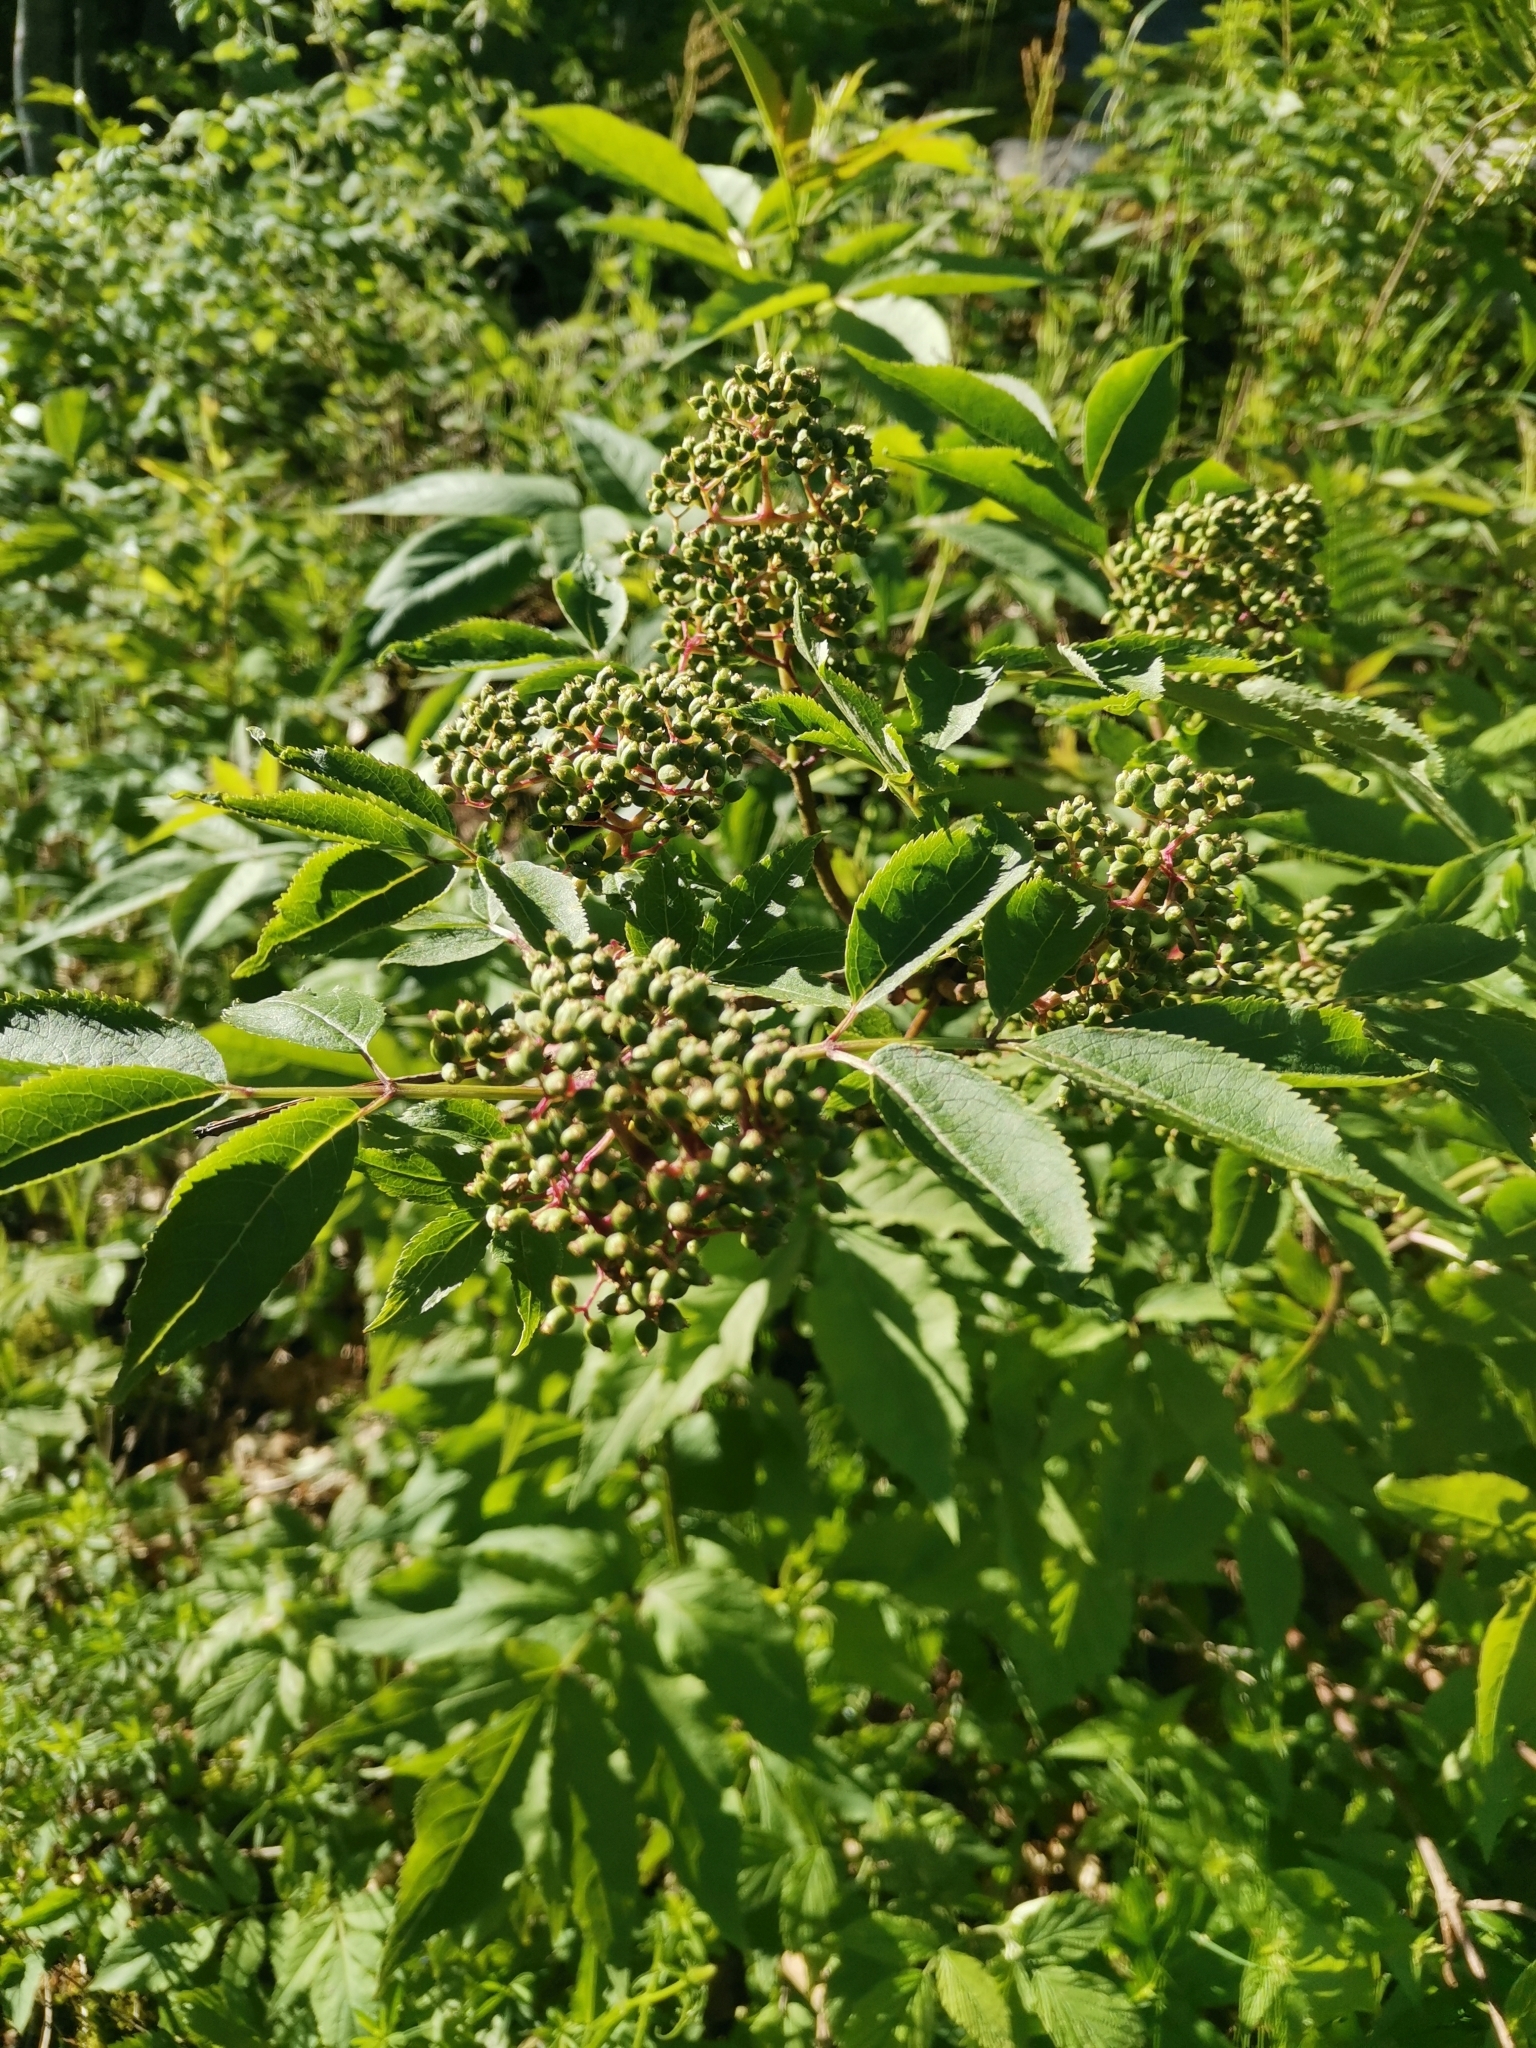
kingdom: Plantae
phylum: Tracheophyta
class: Magnoliopsida
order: Dipsacales
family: Viburnaceae
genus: Sambucus
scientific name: Sambucus racemosa
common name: Red-berried elder
